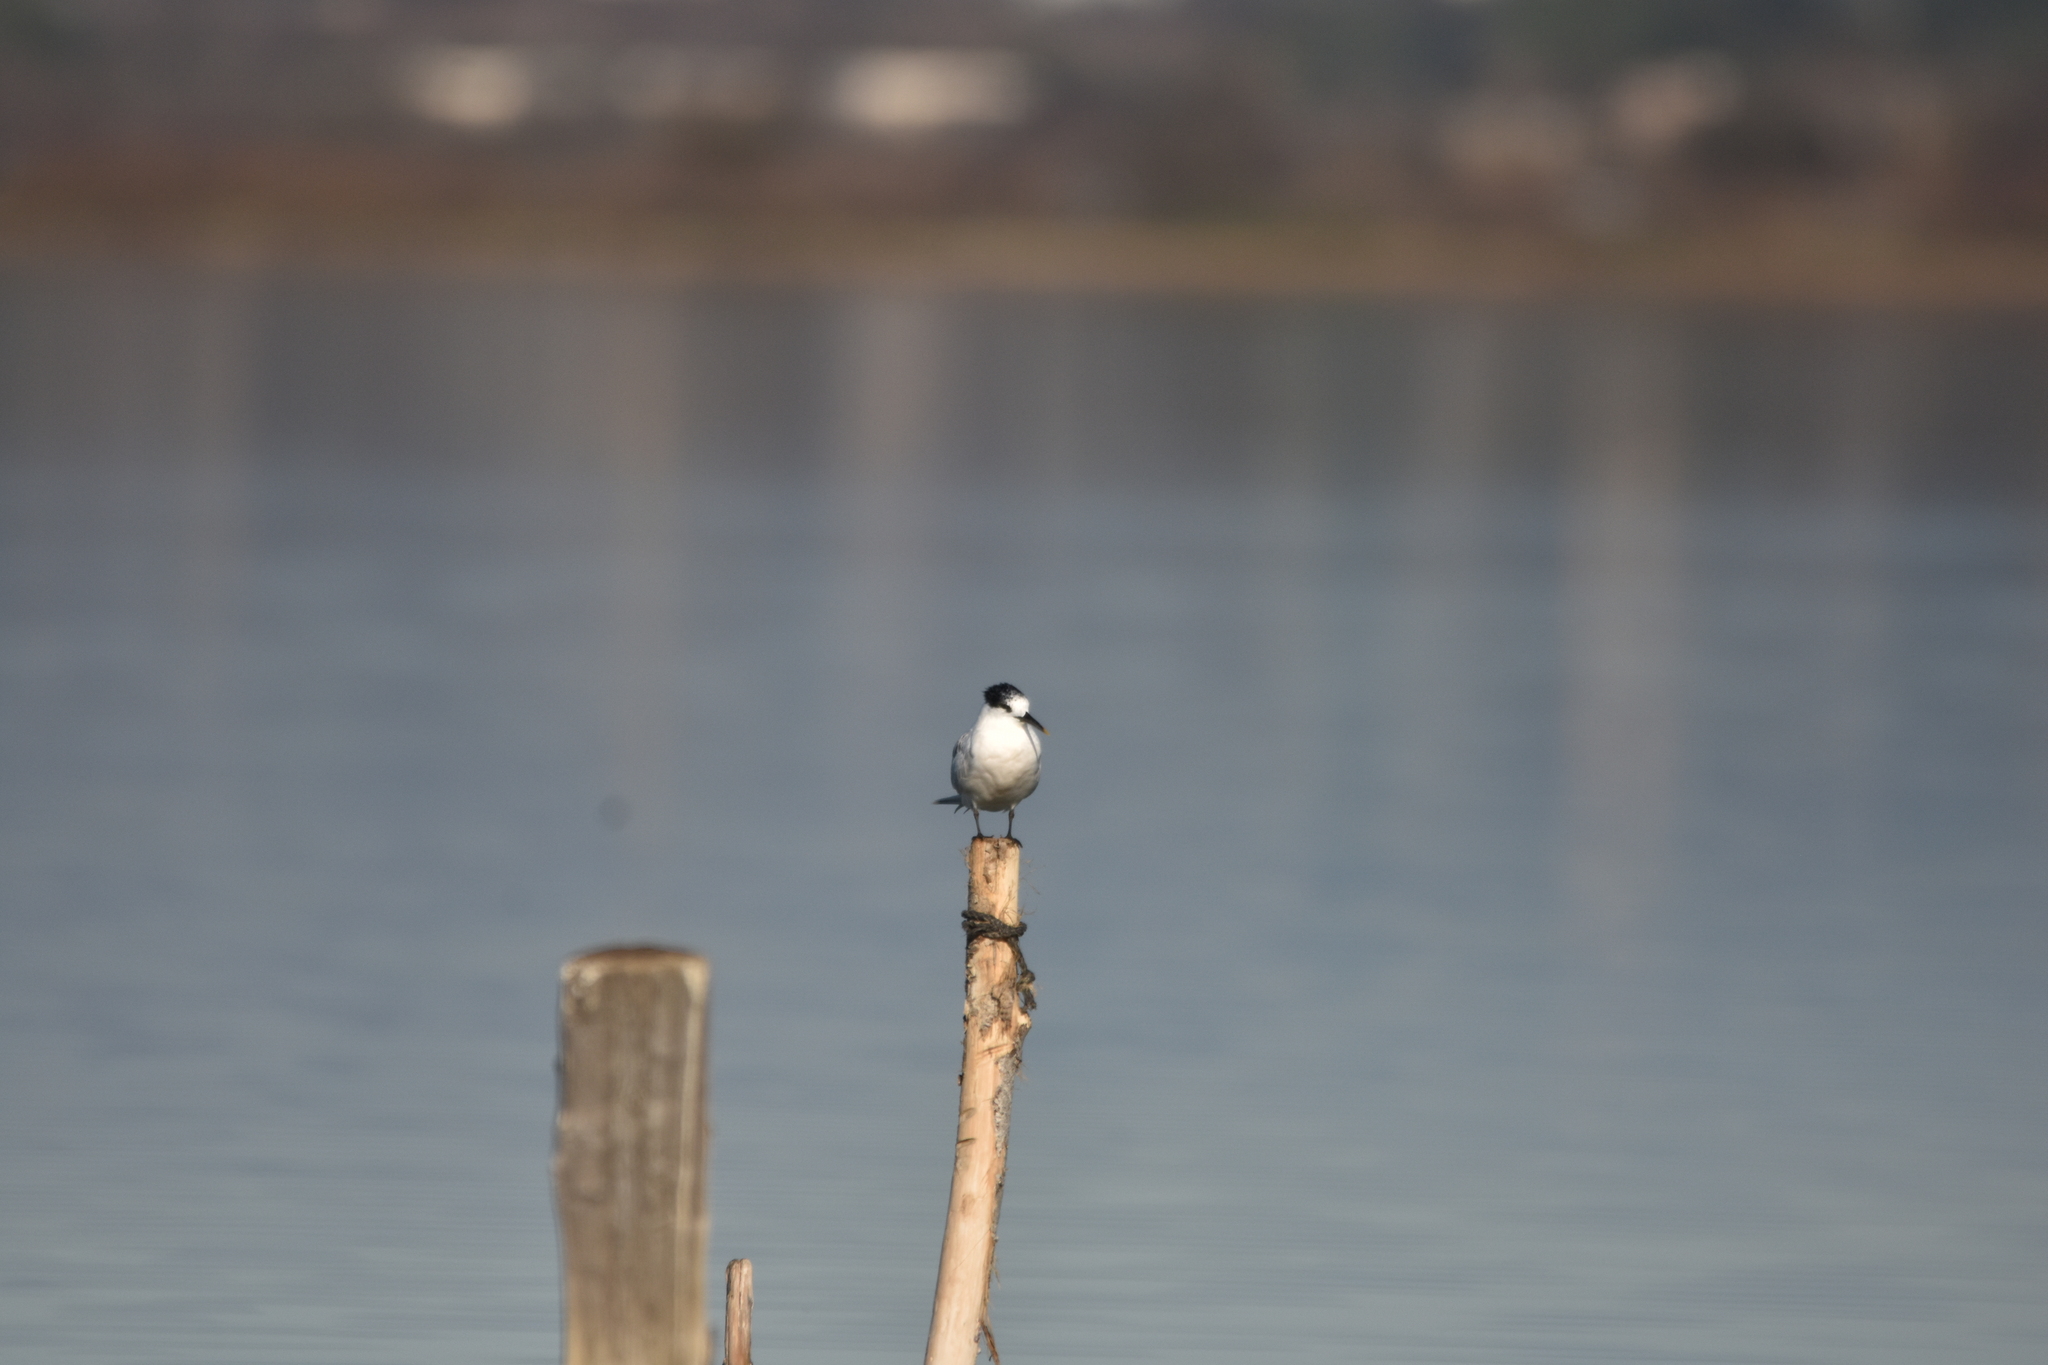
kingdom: Animalia
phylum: Chordata
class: Aves
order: Charadriiformes
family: Laridae
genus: Thalasseus
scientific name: Thalasseus sandvicensis
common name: Sandwich tern
